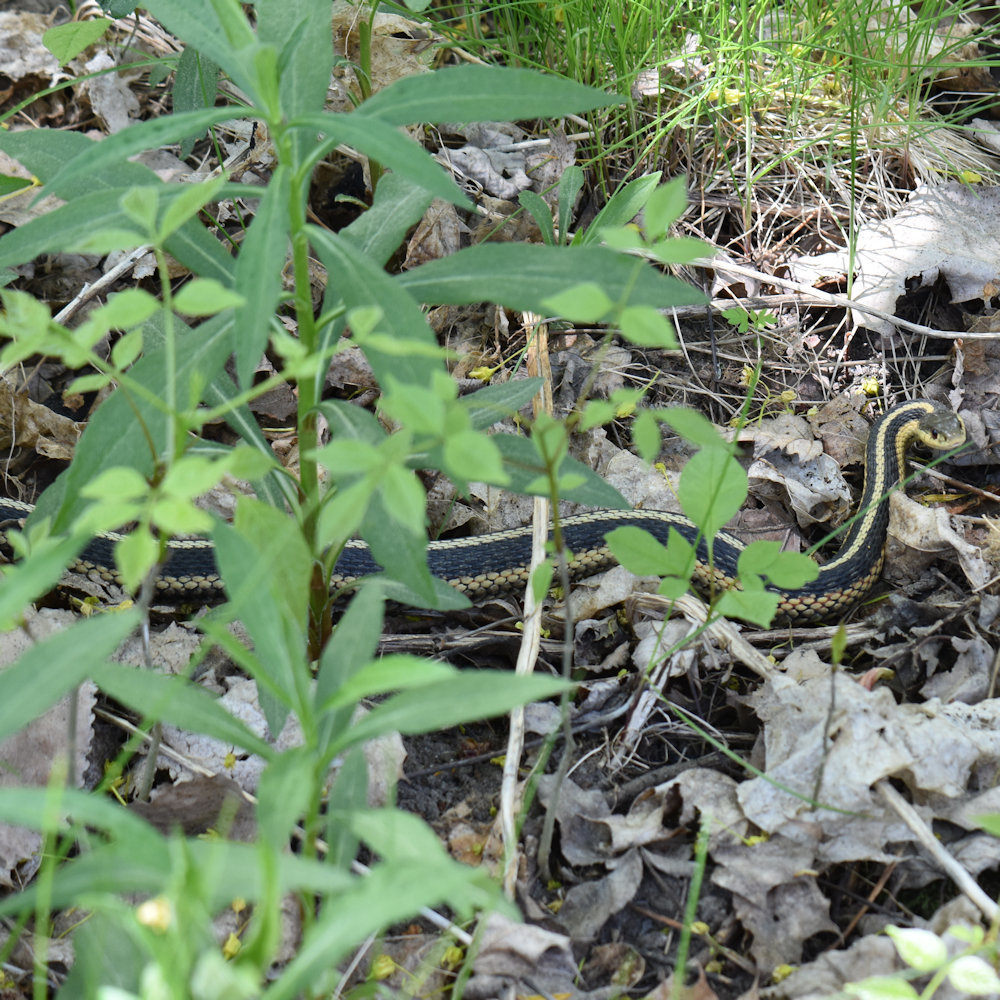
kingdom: Animalia
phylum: Chordata
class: Squamata
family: Colubridae
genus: Thamnophis
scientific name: Thamnophis sirtalis
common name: Common garter snake
